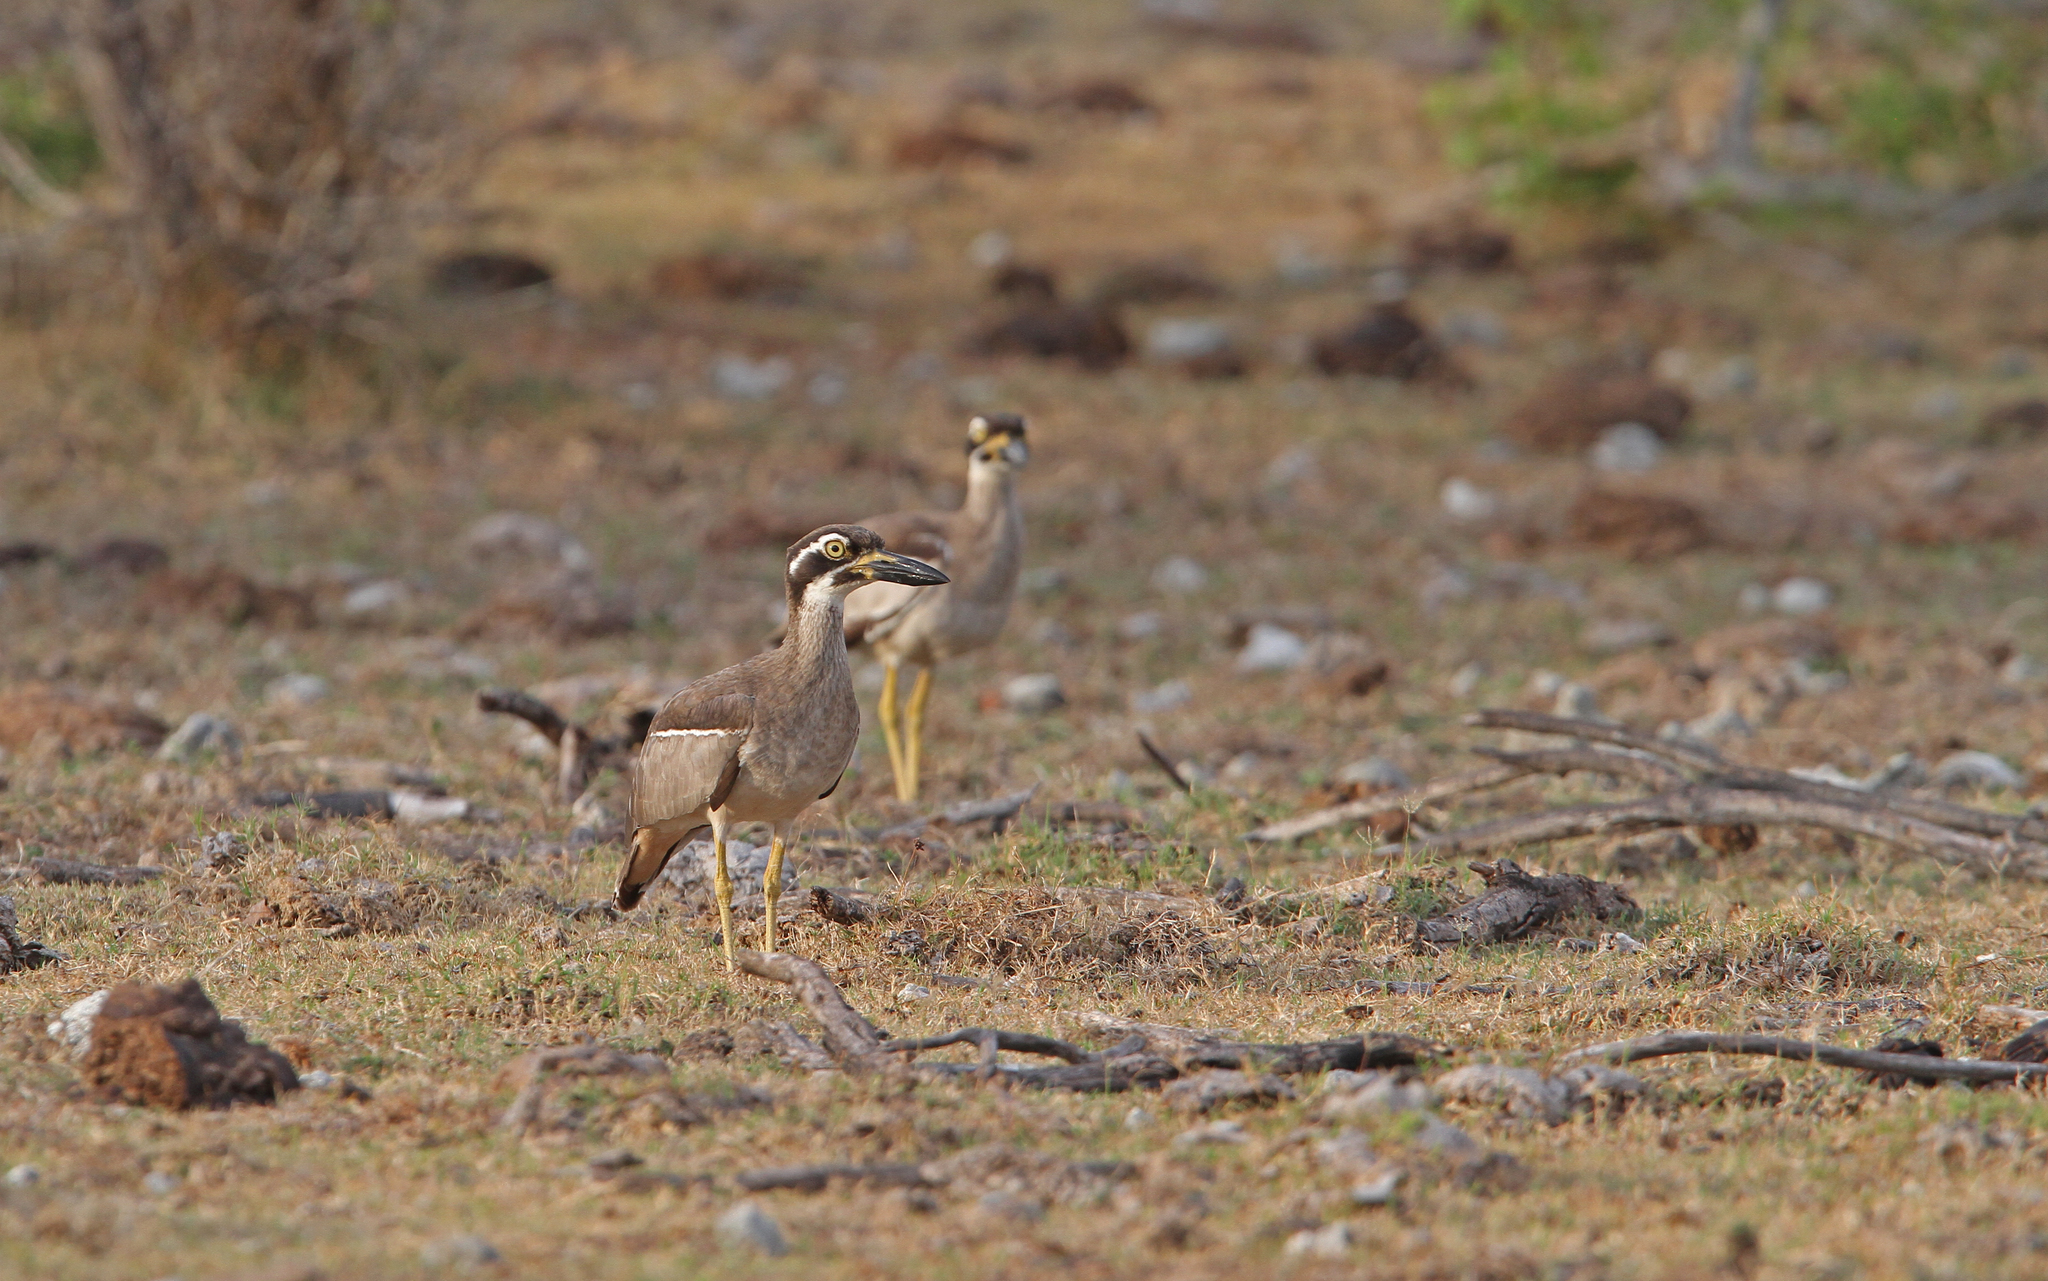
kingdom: Animalia
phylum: Chordata
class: Aves
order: Charadriiformes
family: Burhinidae
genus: Esacus
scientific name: Esacus magnirostris
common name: Beach stone-curlew
